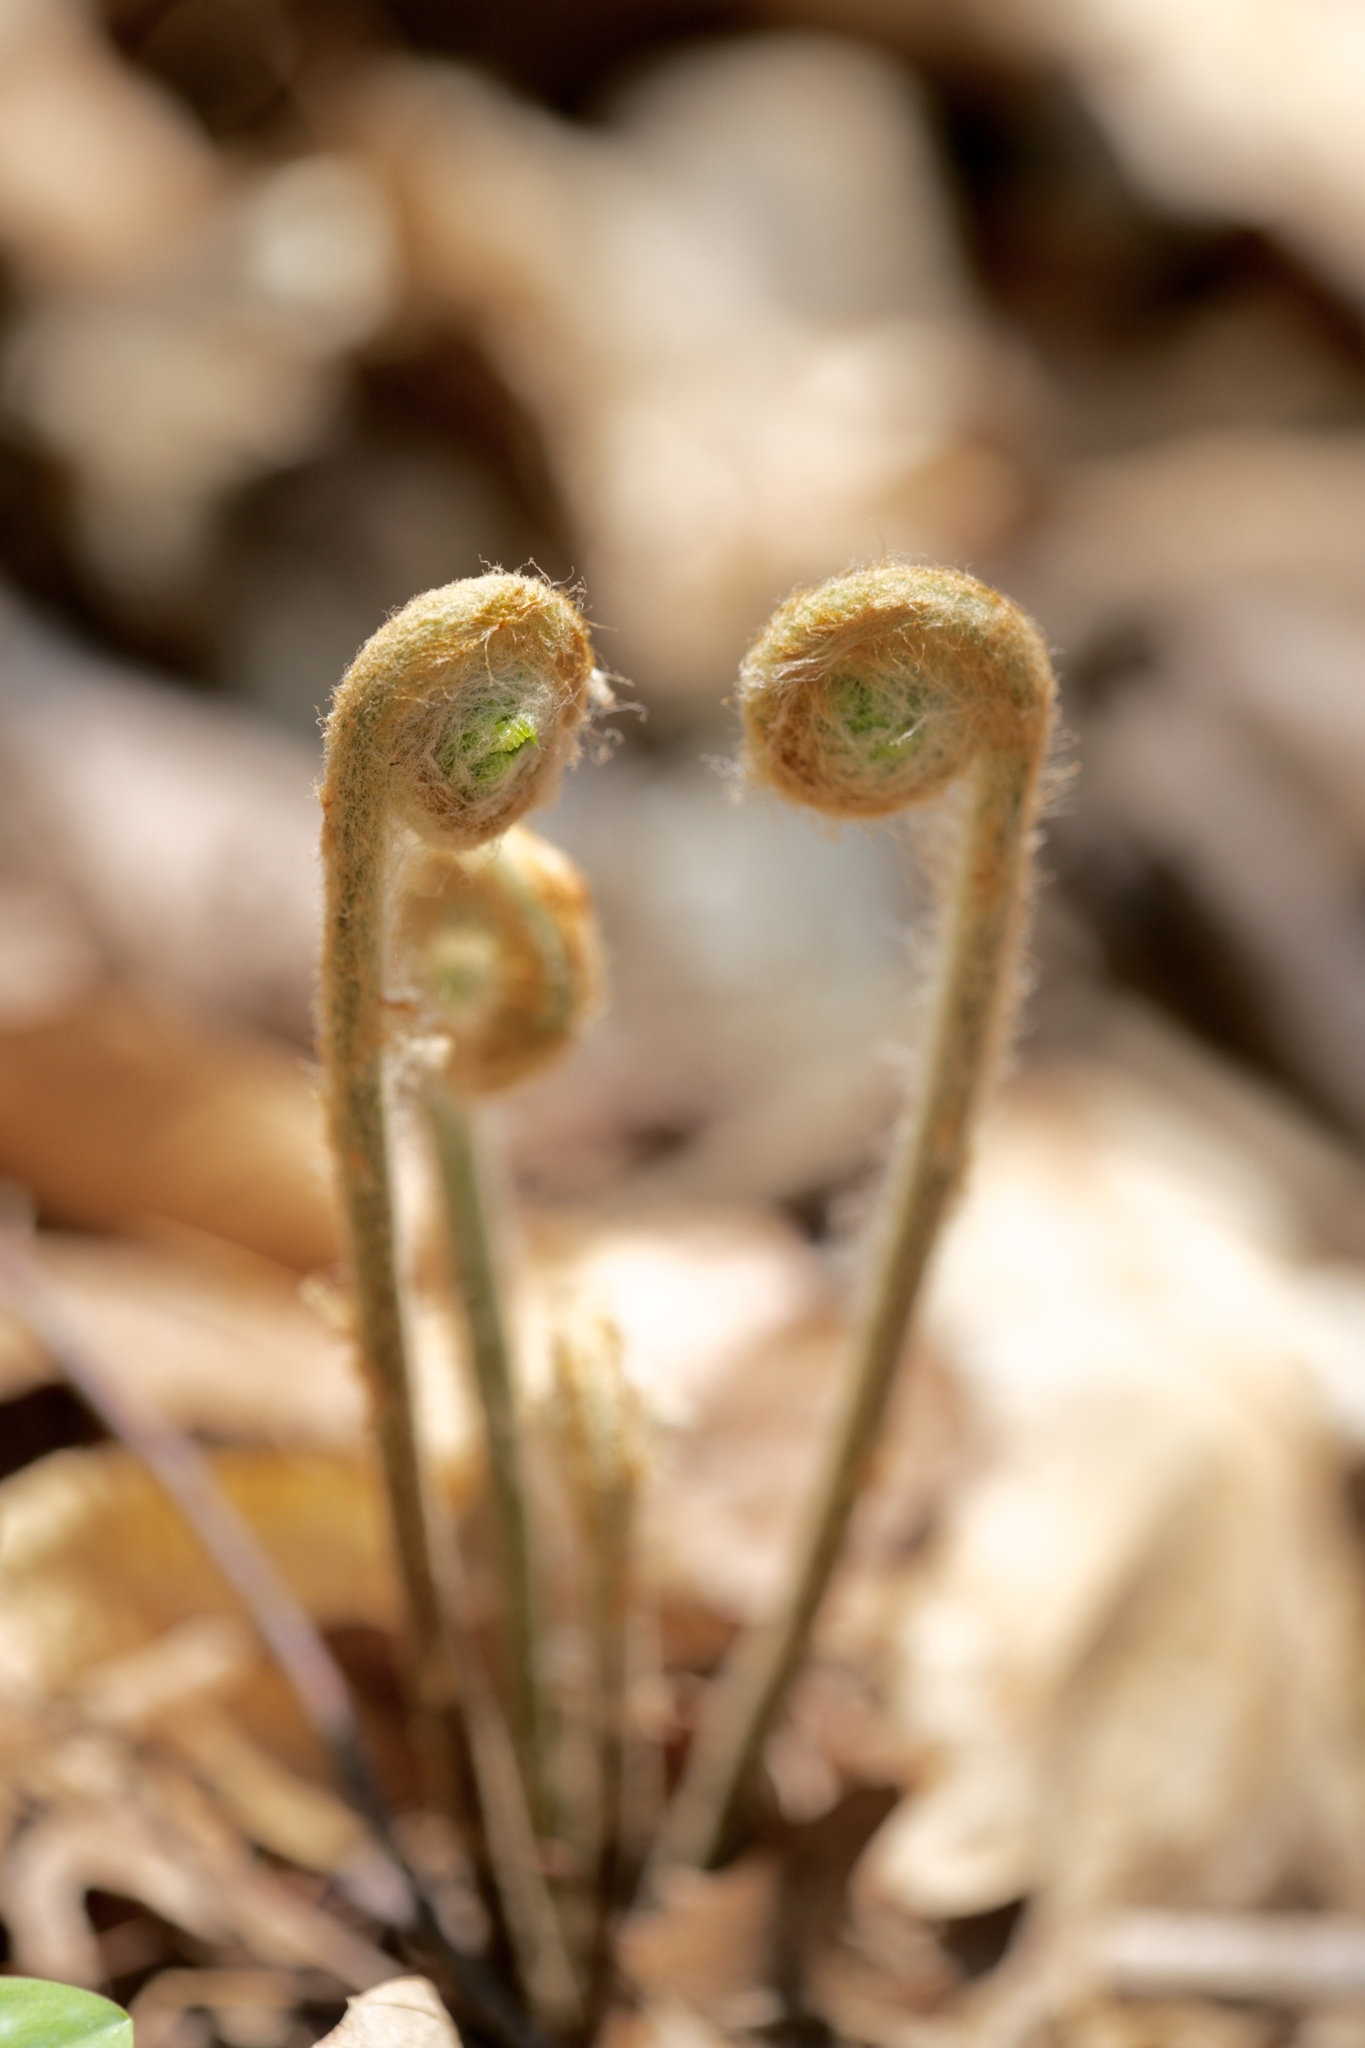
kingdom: Plantae
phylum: Tracheophyta
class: Polypodiopsida
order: Osmundales
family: Osmundaceae
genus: Osmundastrum
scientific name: Osmundastrum cinnamomeum
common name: Cinnamon fern
